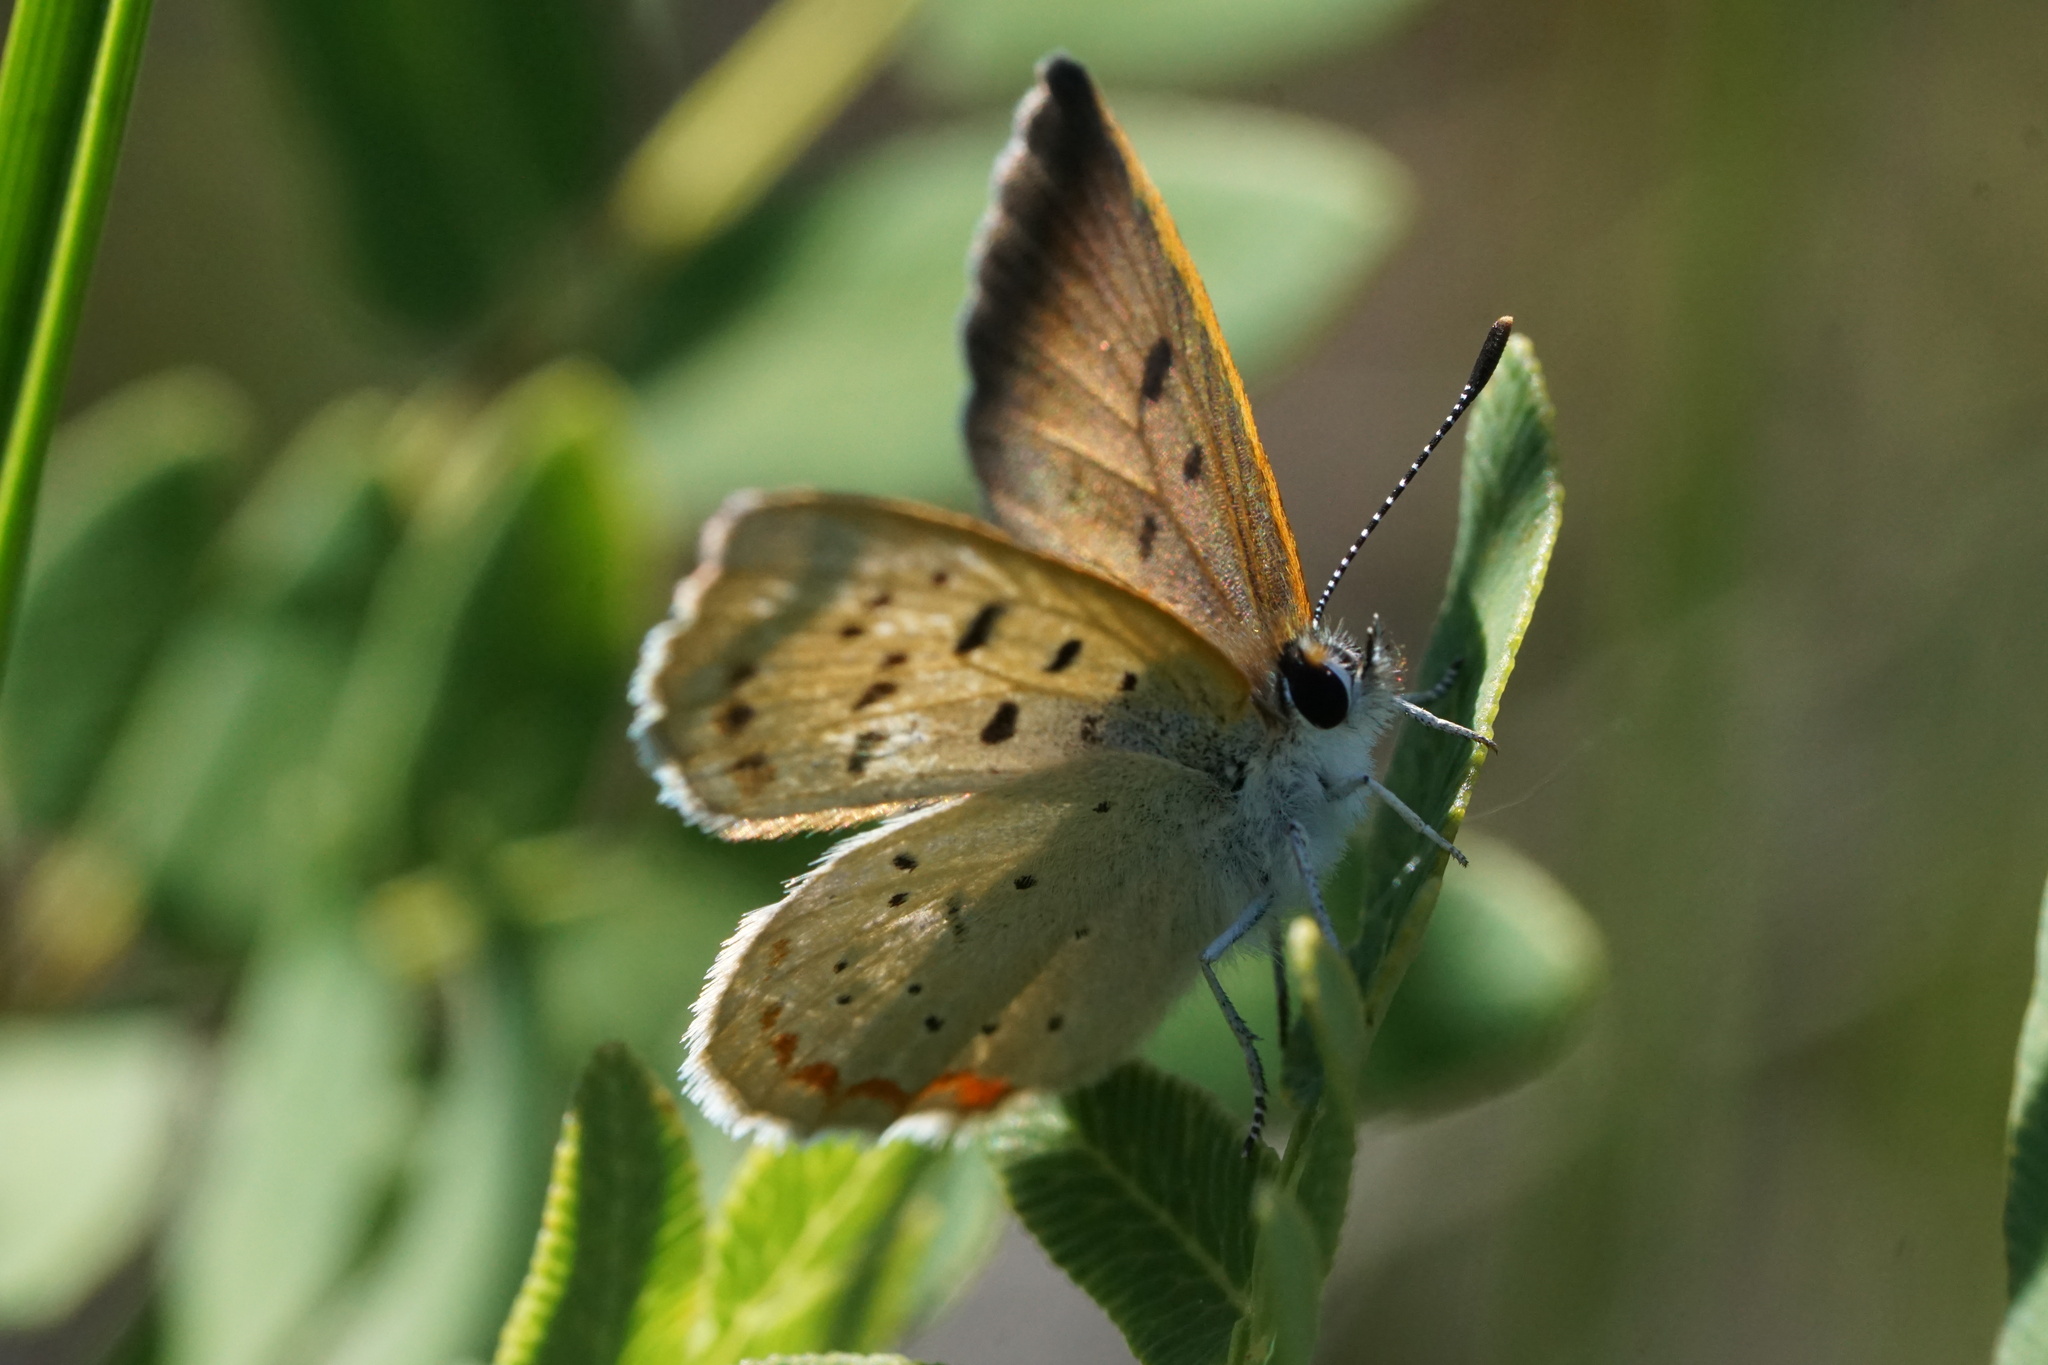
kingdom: Animalia
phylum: Arthropoda
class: Insecta
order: Lepidoptera
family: Lycaenidae
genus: Tharsalea
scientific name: Tharsalea epixanthe
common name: Bog copper
